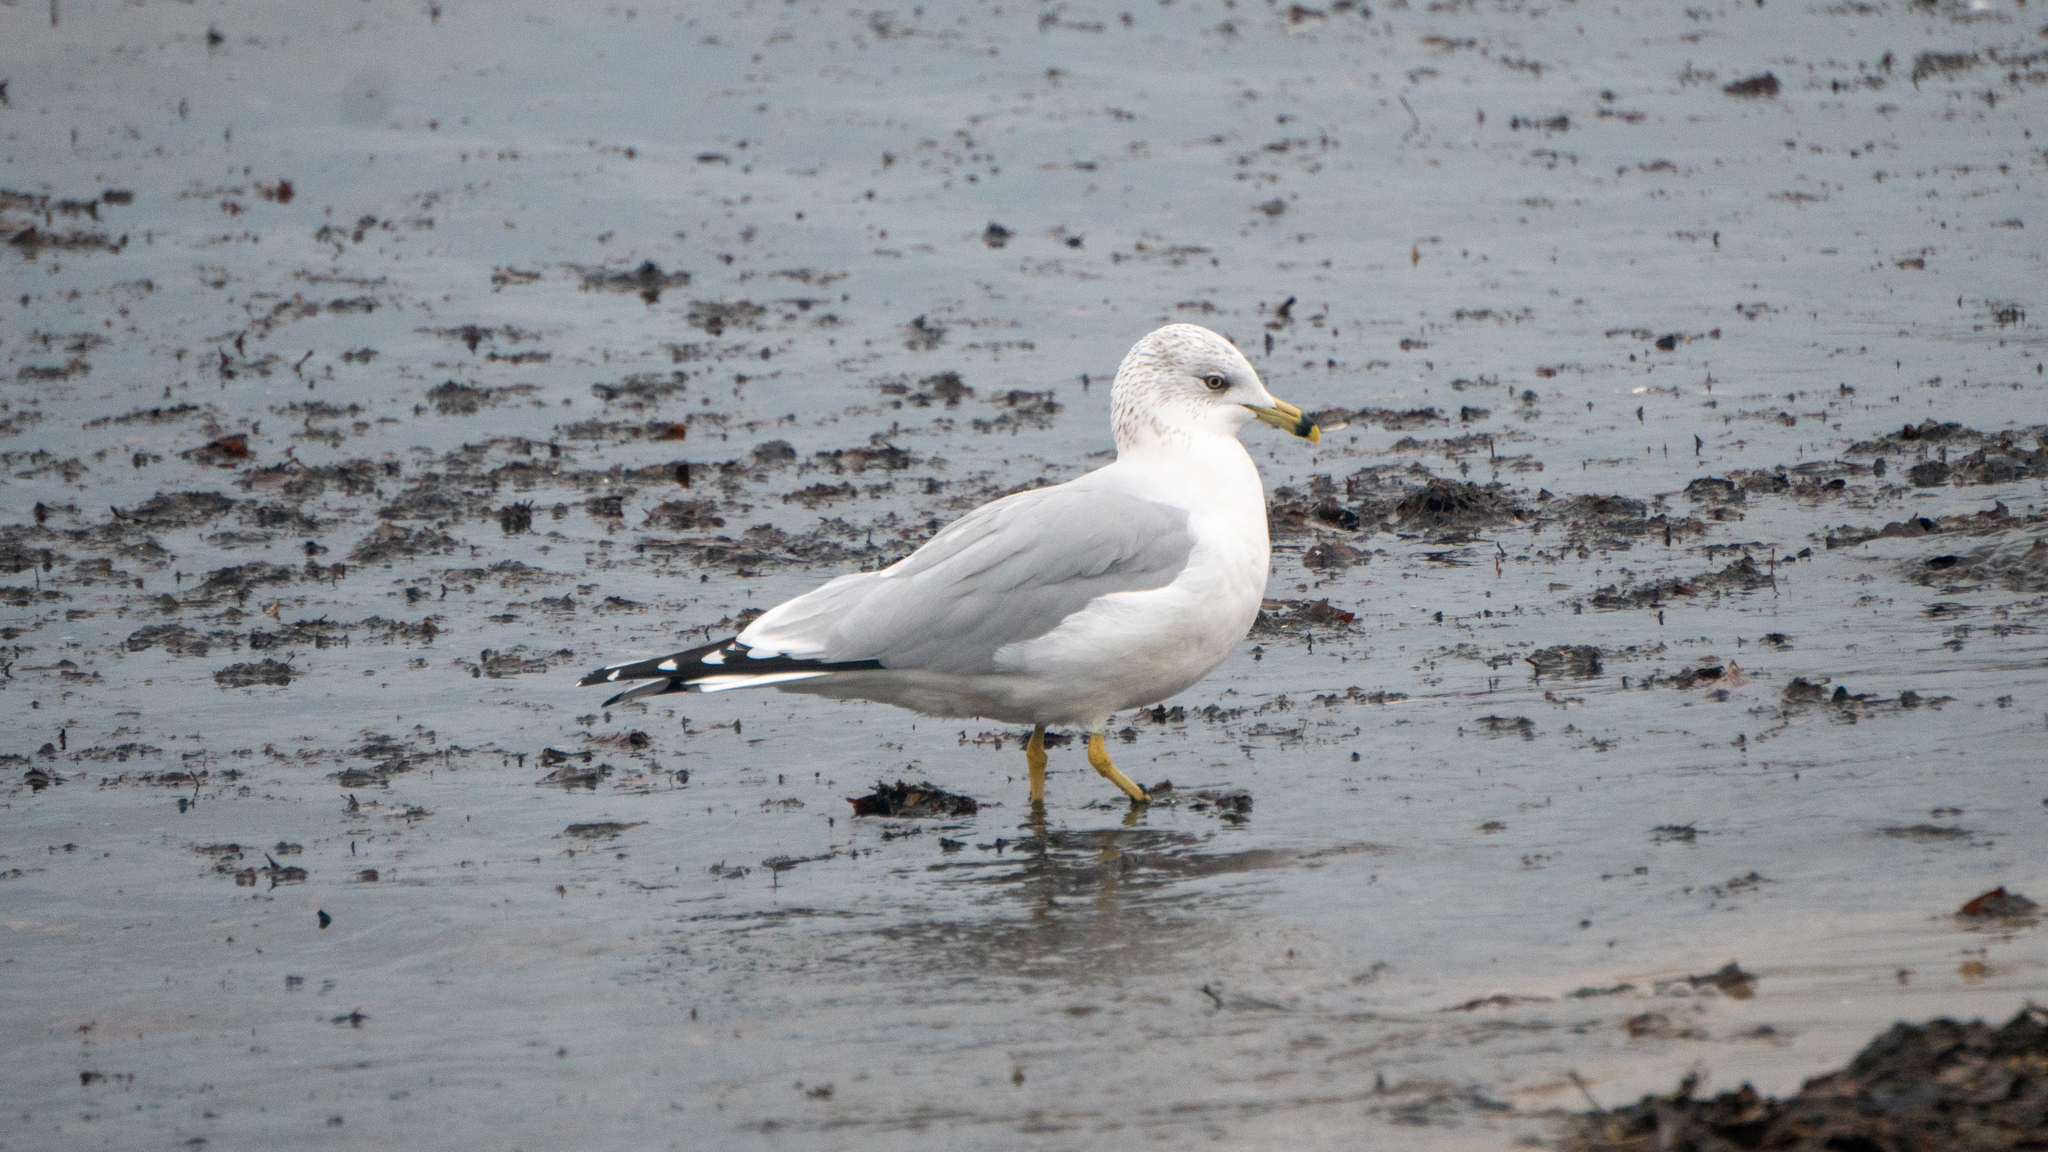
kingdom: Animalia
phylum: Chordata
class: Aves
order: Charadriiformes
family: Laridae
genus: Larus
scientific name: Larus delawarensis
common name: Ring-billed gull
